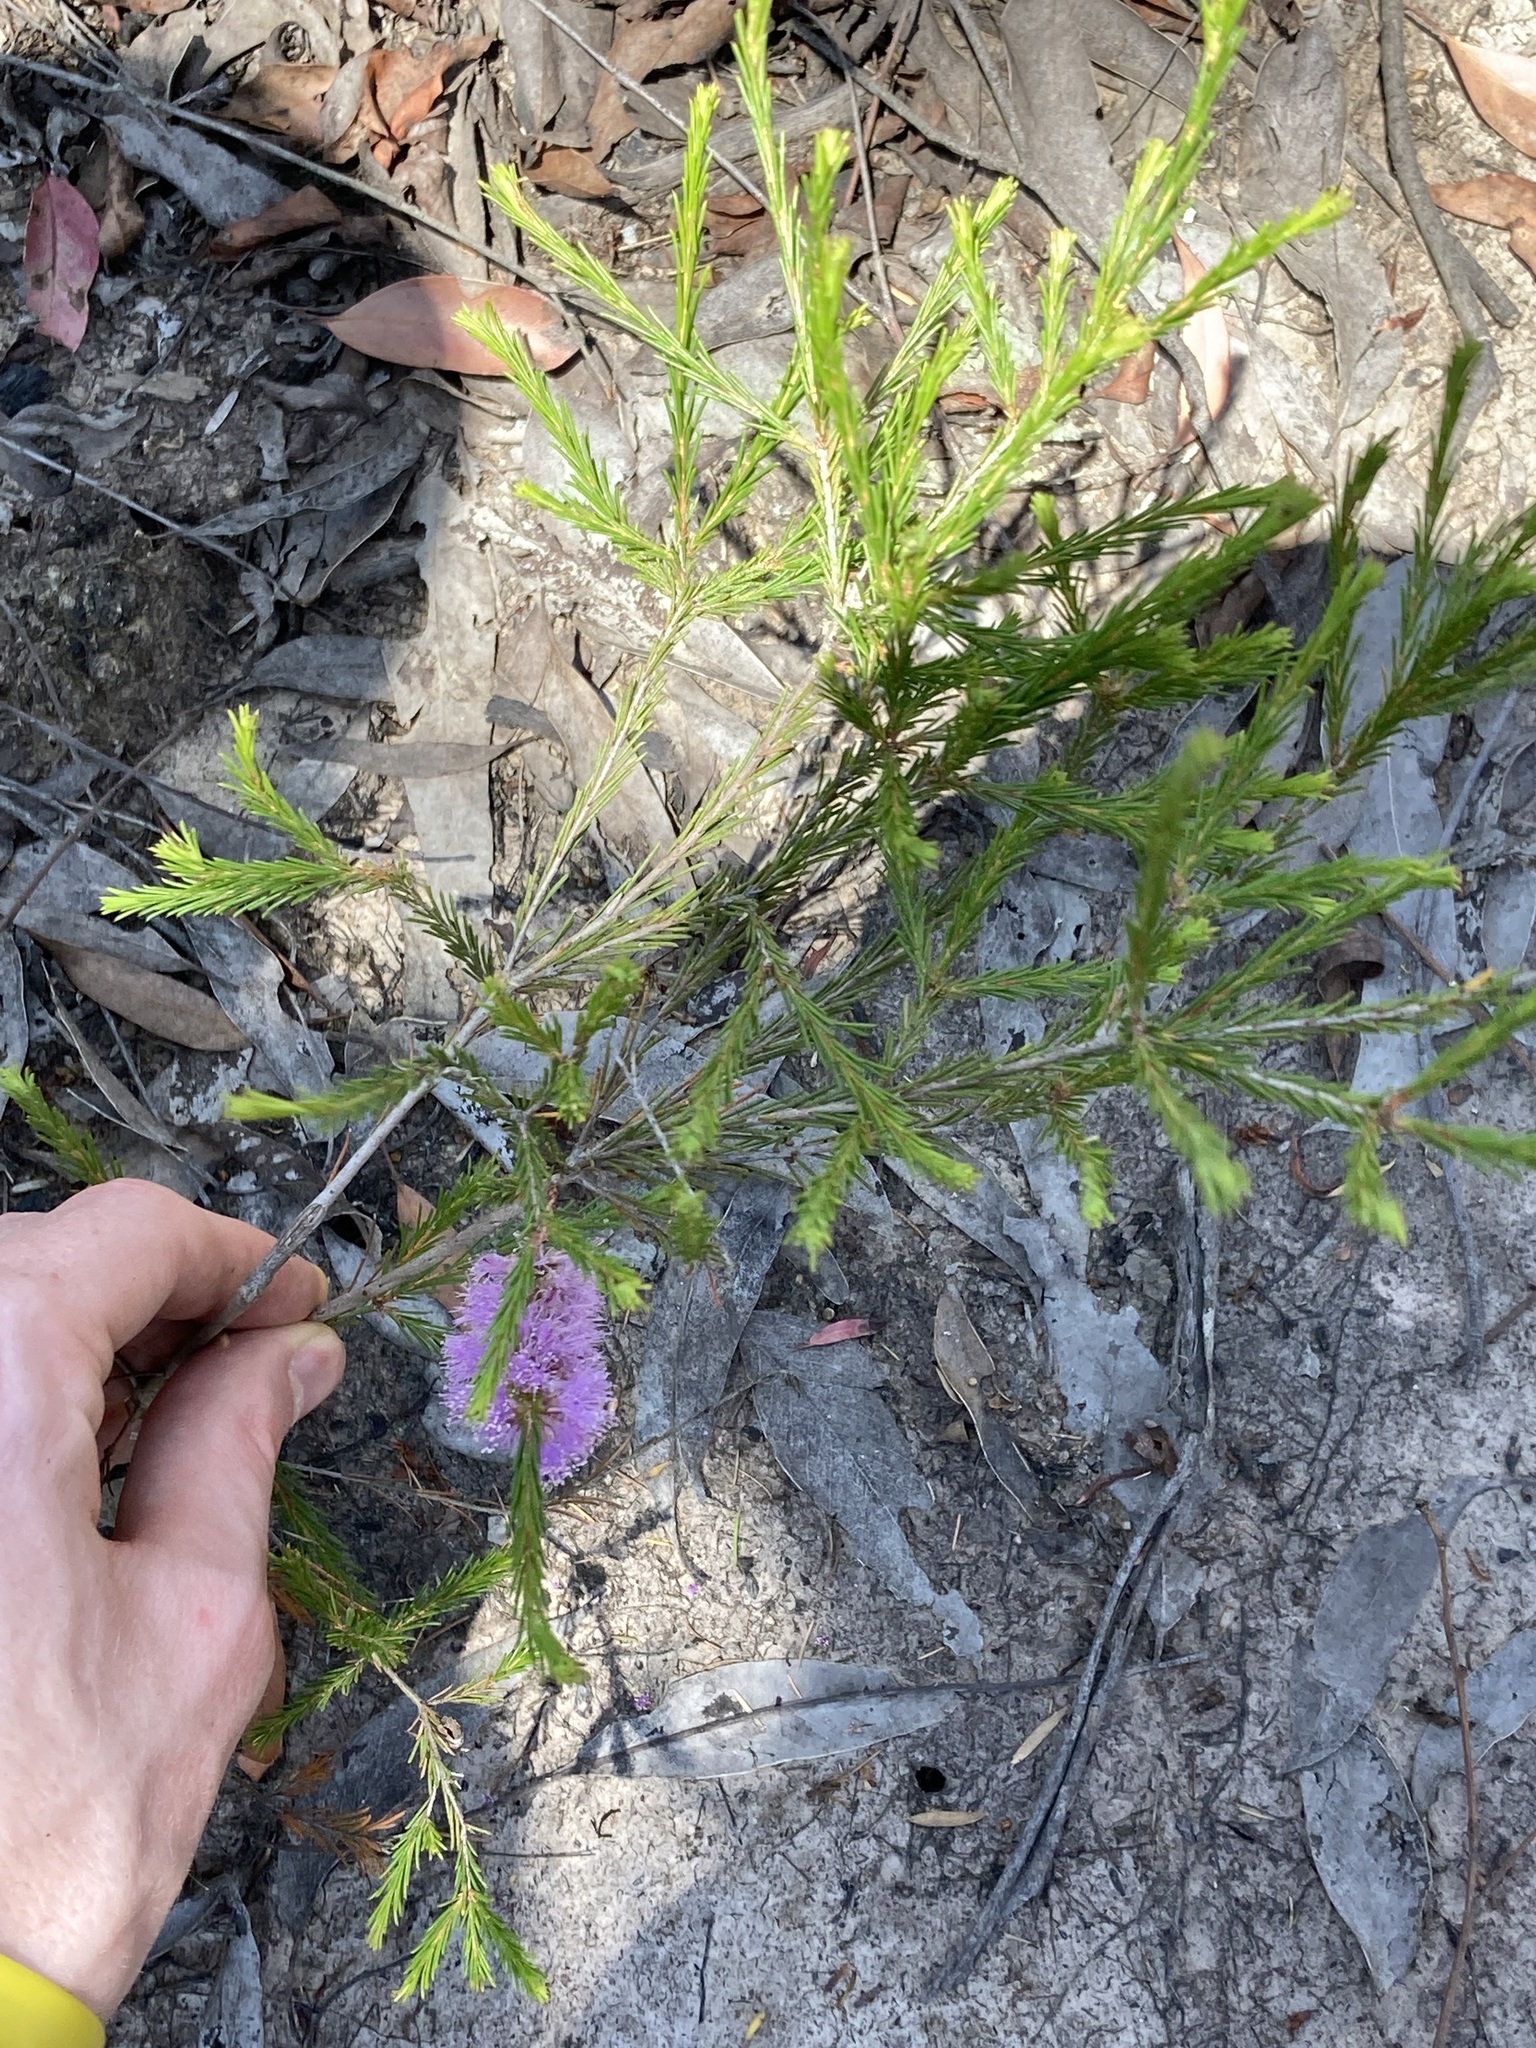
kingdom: Plantae
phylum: Tracheophyta
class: Magnoliopsida
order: Myrtales
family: Myrtaceae
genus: Melaleuca
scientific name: Melaleuca diosmatifolia
